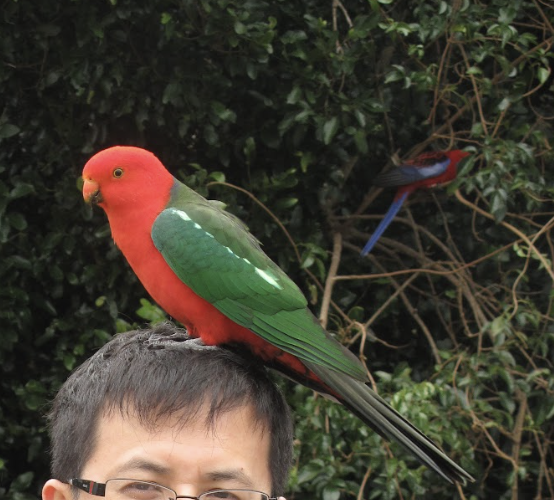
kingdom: Animalia
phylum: Chordata
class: Aves
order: Psittaciformes
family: Psittacidae
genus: Alisterus
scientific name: Alisterus scapularis
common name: Australian king parrot
